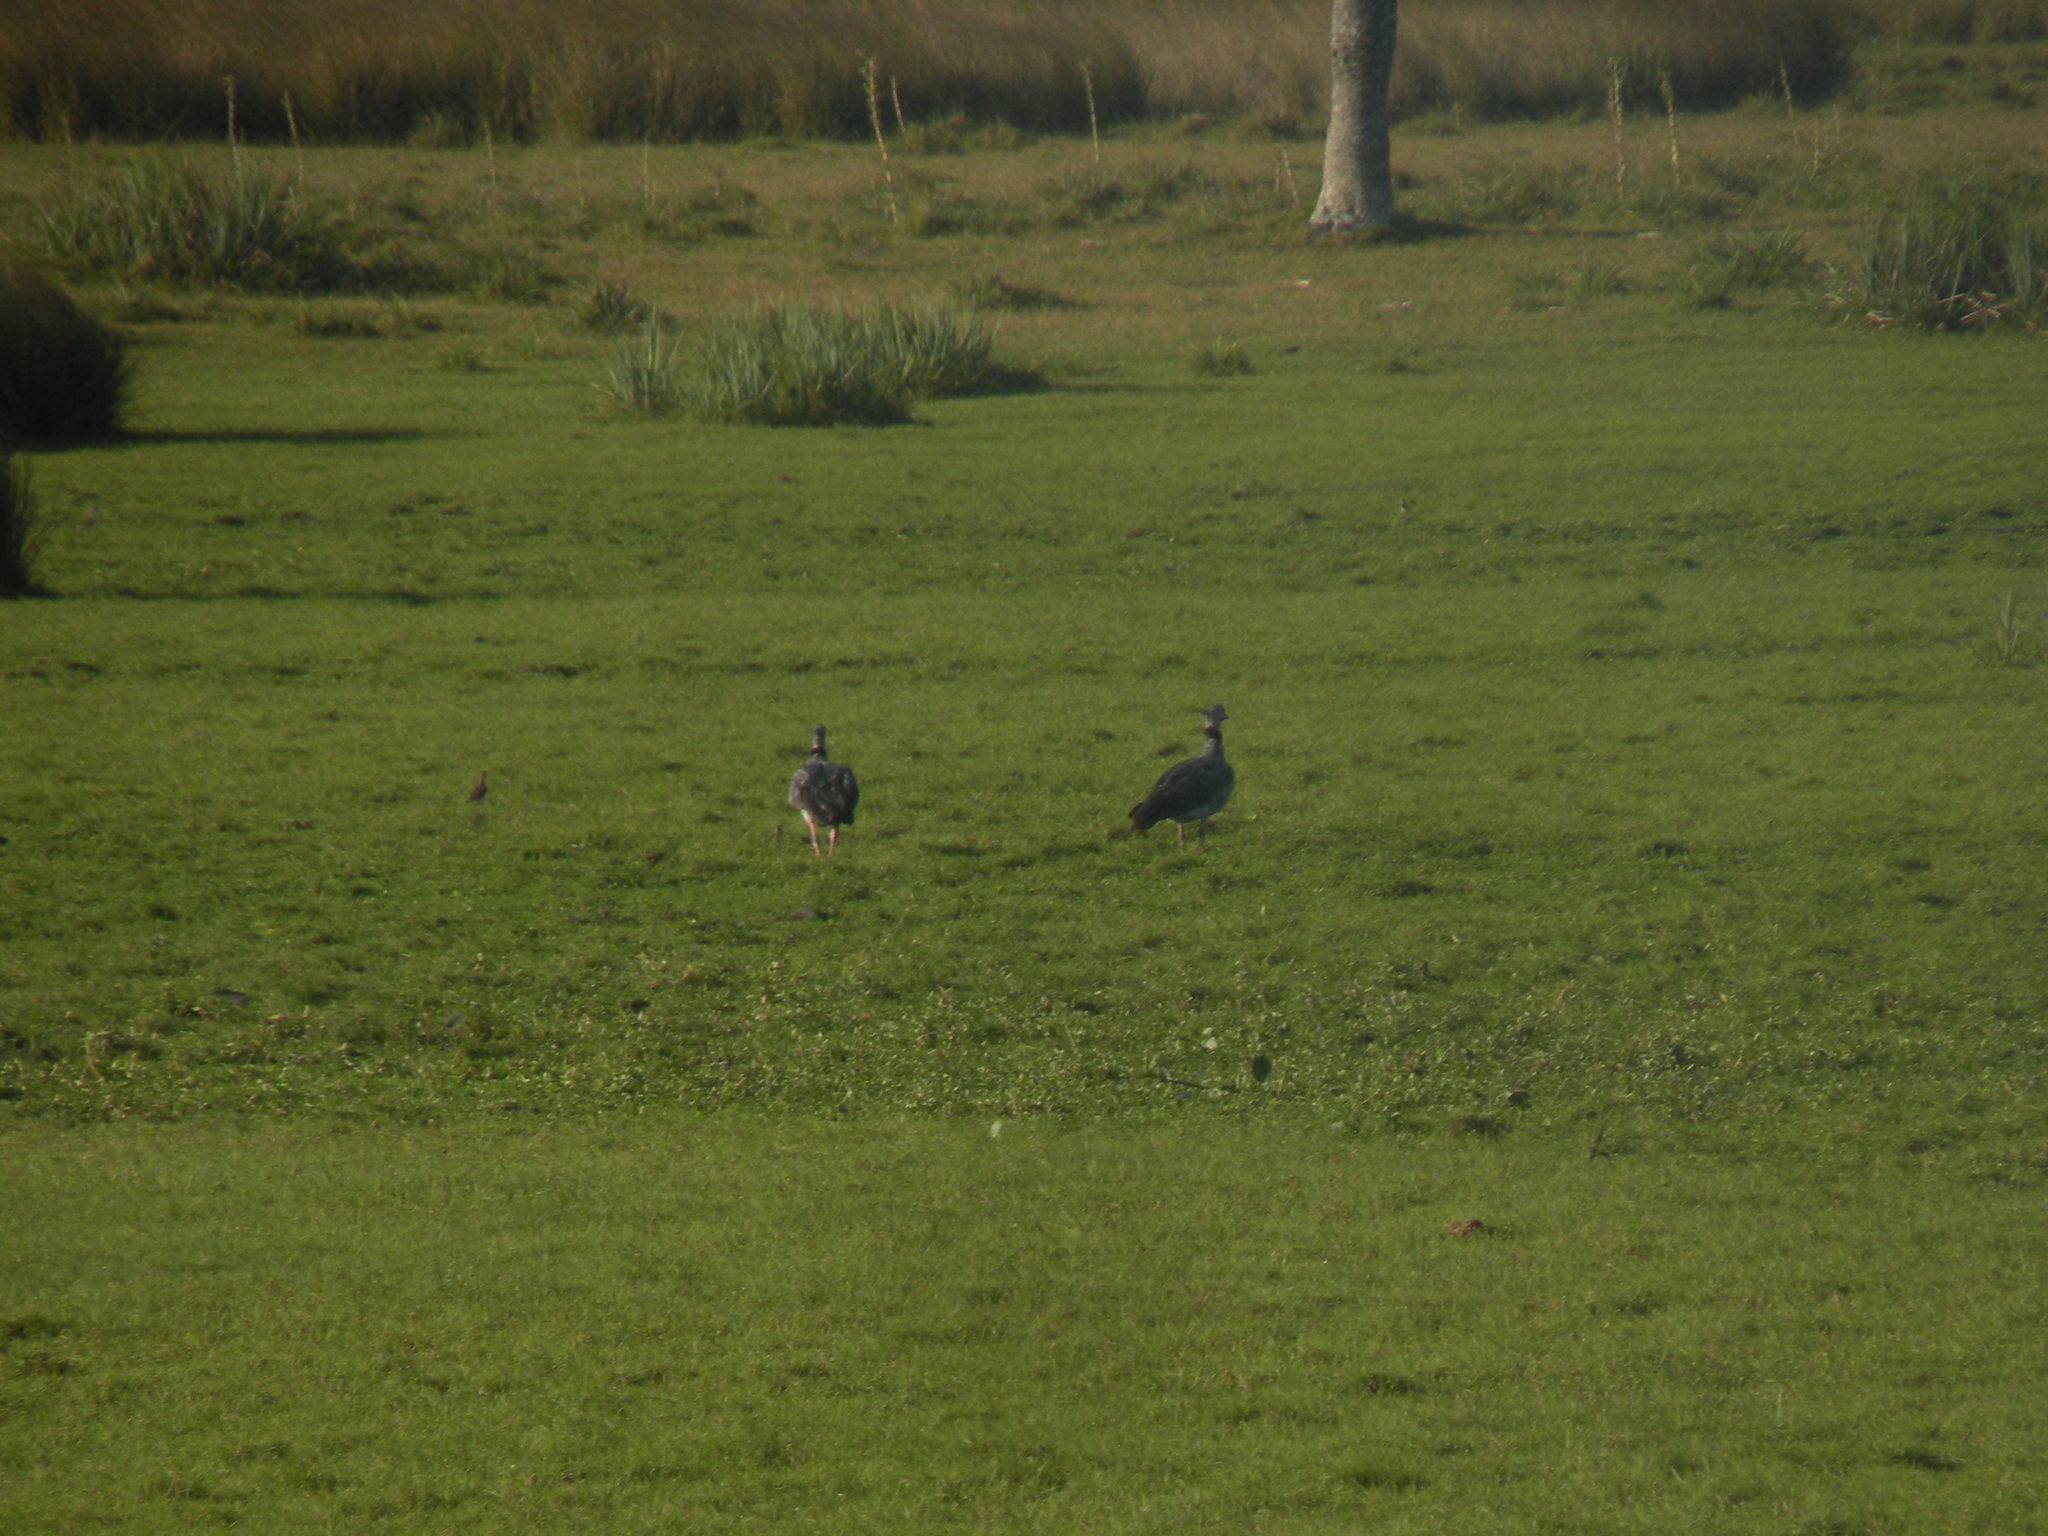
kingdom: Animalia
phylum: Chordata
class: Aves
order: Anseriformes
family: Anhimidae
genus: Chauna
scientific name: Chauna torquata
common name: Southern screamer
